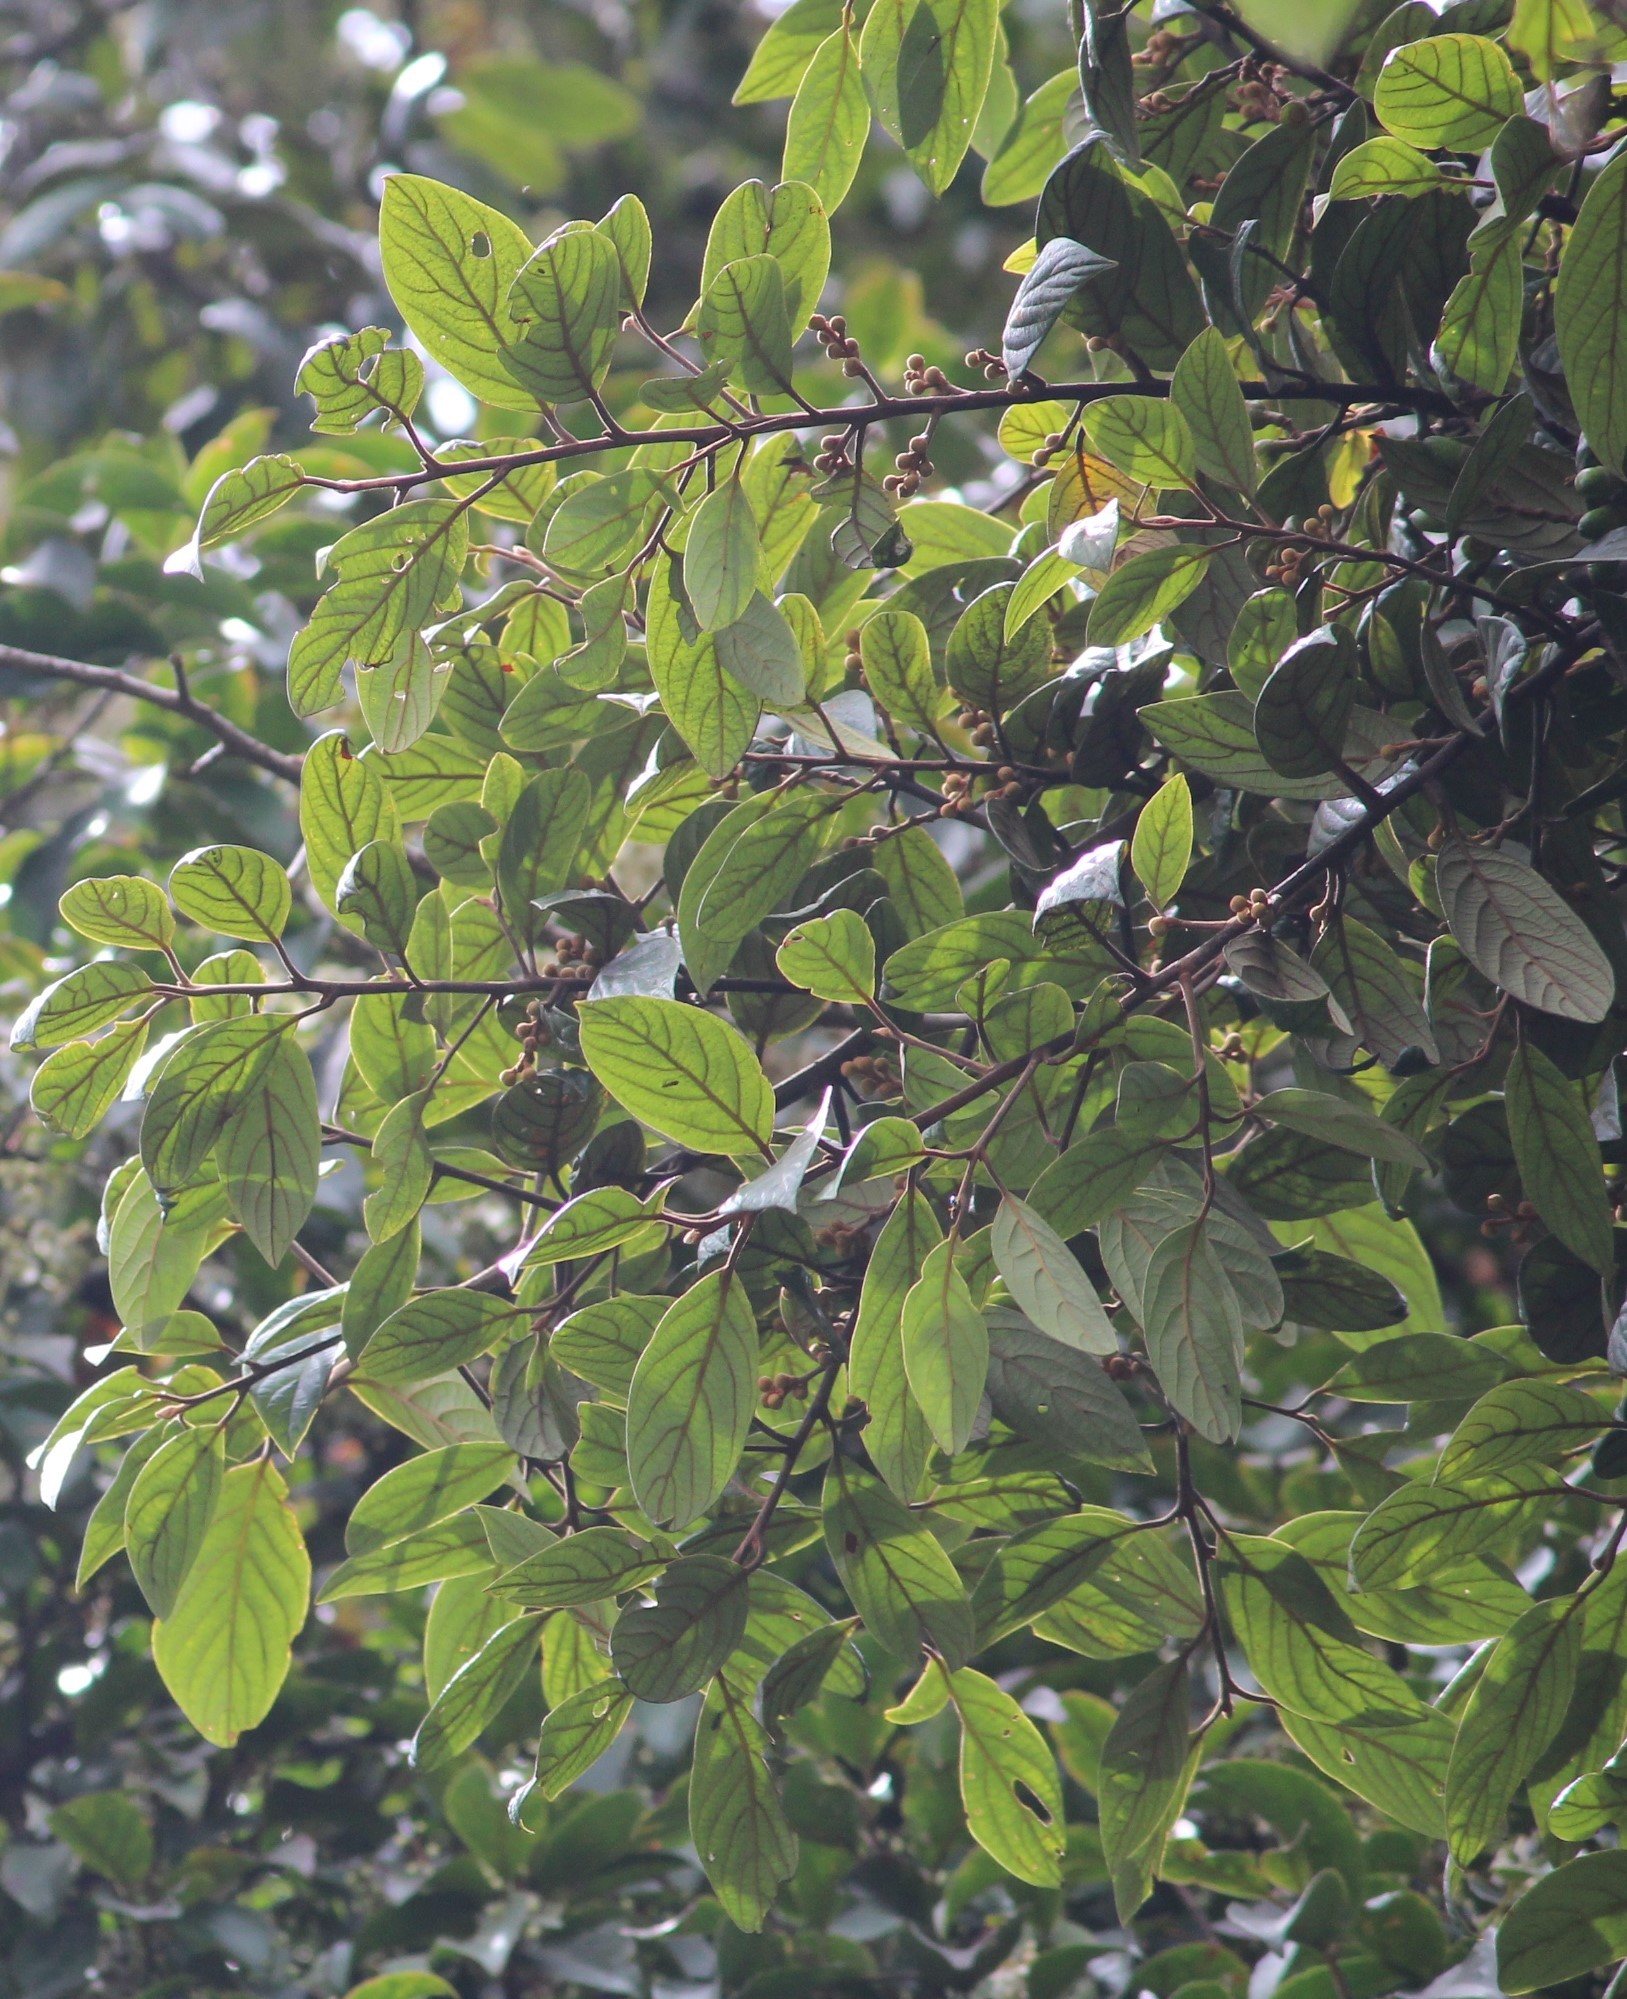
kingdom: Plantae
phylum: Tracheophyta
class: Magnoliopsida
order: Laurales
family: Lauraceae
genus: Litsea
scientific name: Litsea wightiana
